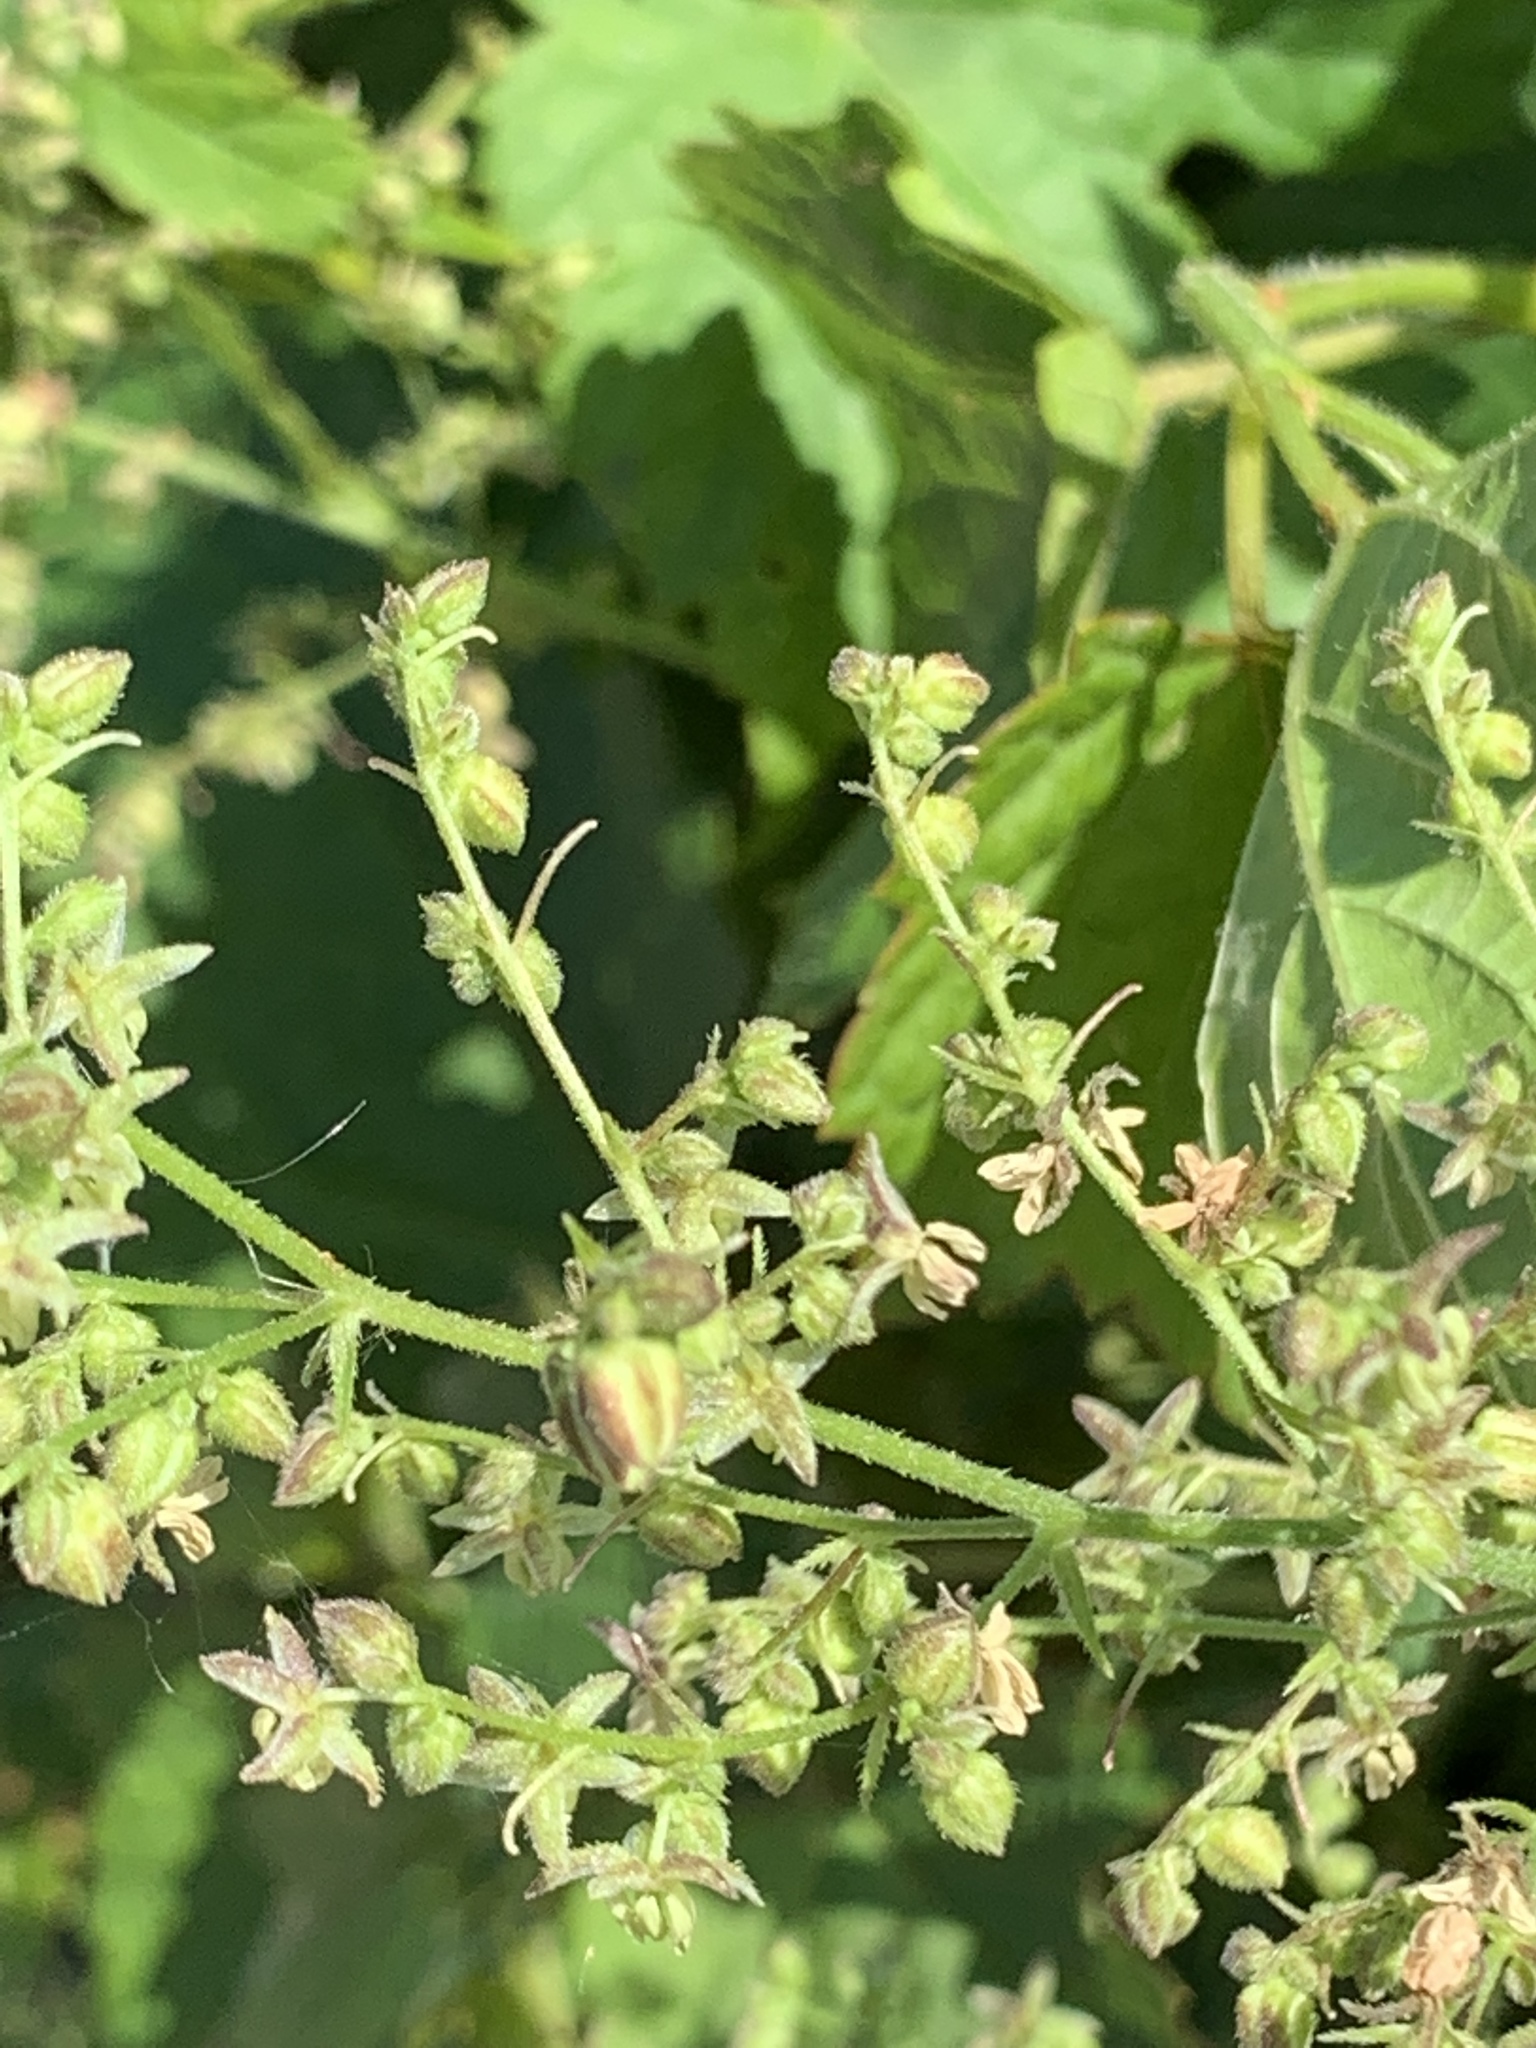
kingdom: Plantae
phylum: Tracheophyta
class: Magnoliopsida
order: Rosales
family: Cannabaceae
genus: Humulus
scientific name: Humulus scandens
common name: Japanese hop
